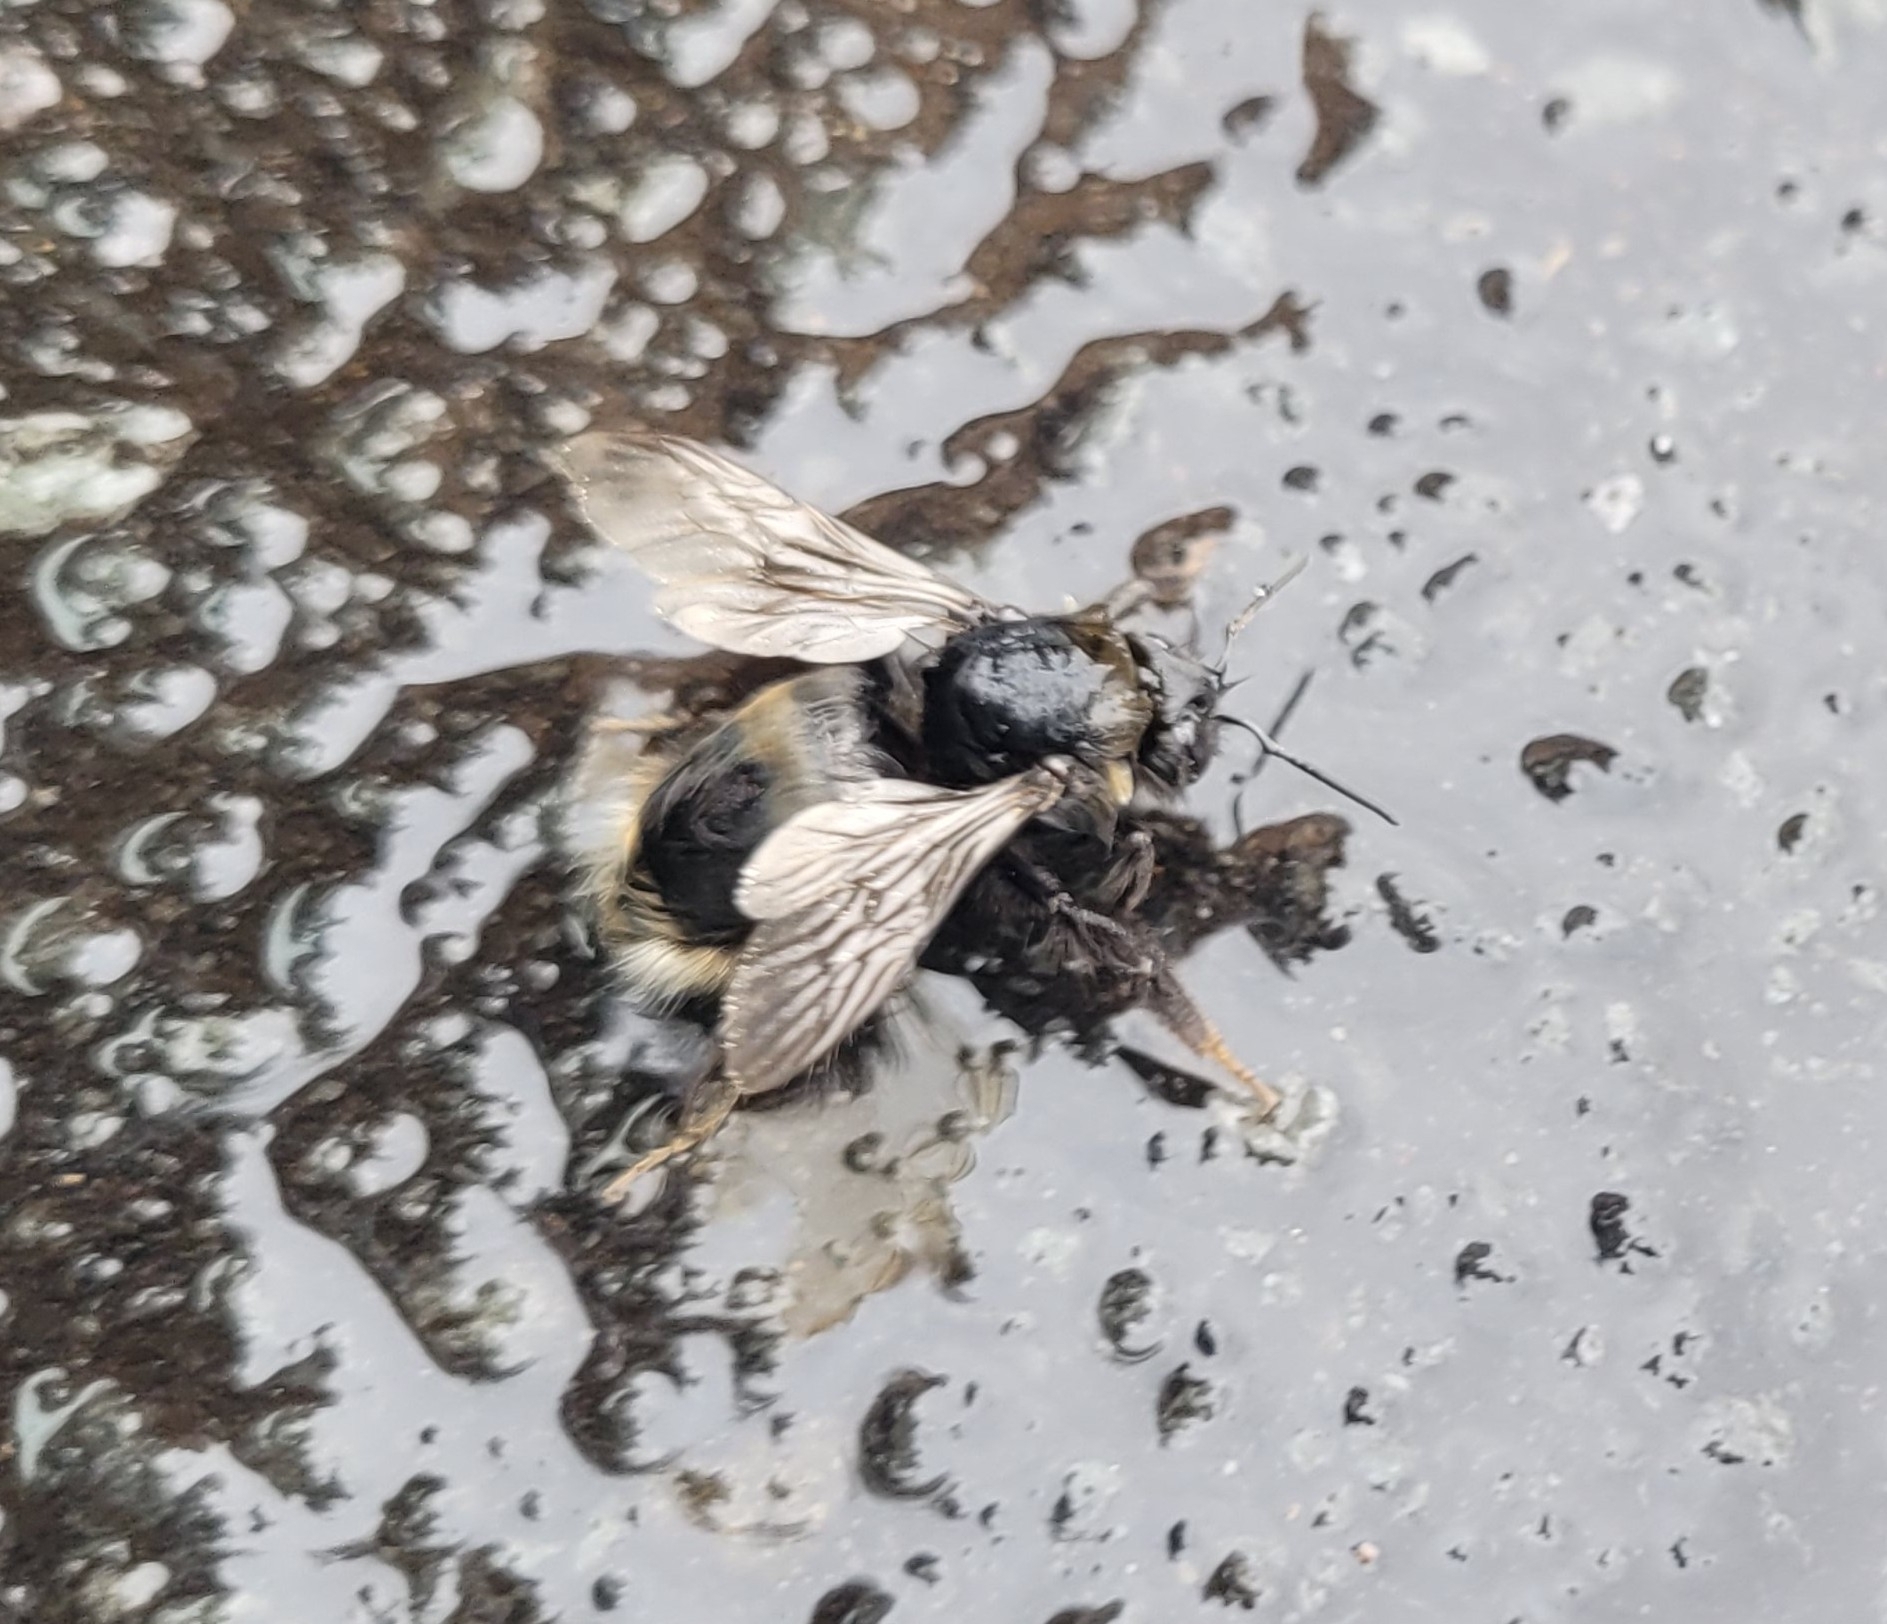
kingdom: Animalia
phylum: Arthropoda
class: Insecta
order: Hymenoptera
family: Apidae
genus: Bombus
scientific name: Bombus terrestris
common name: Buff-tailed bumblebee
